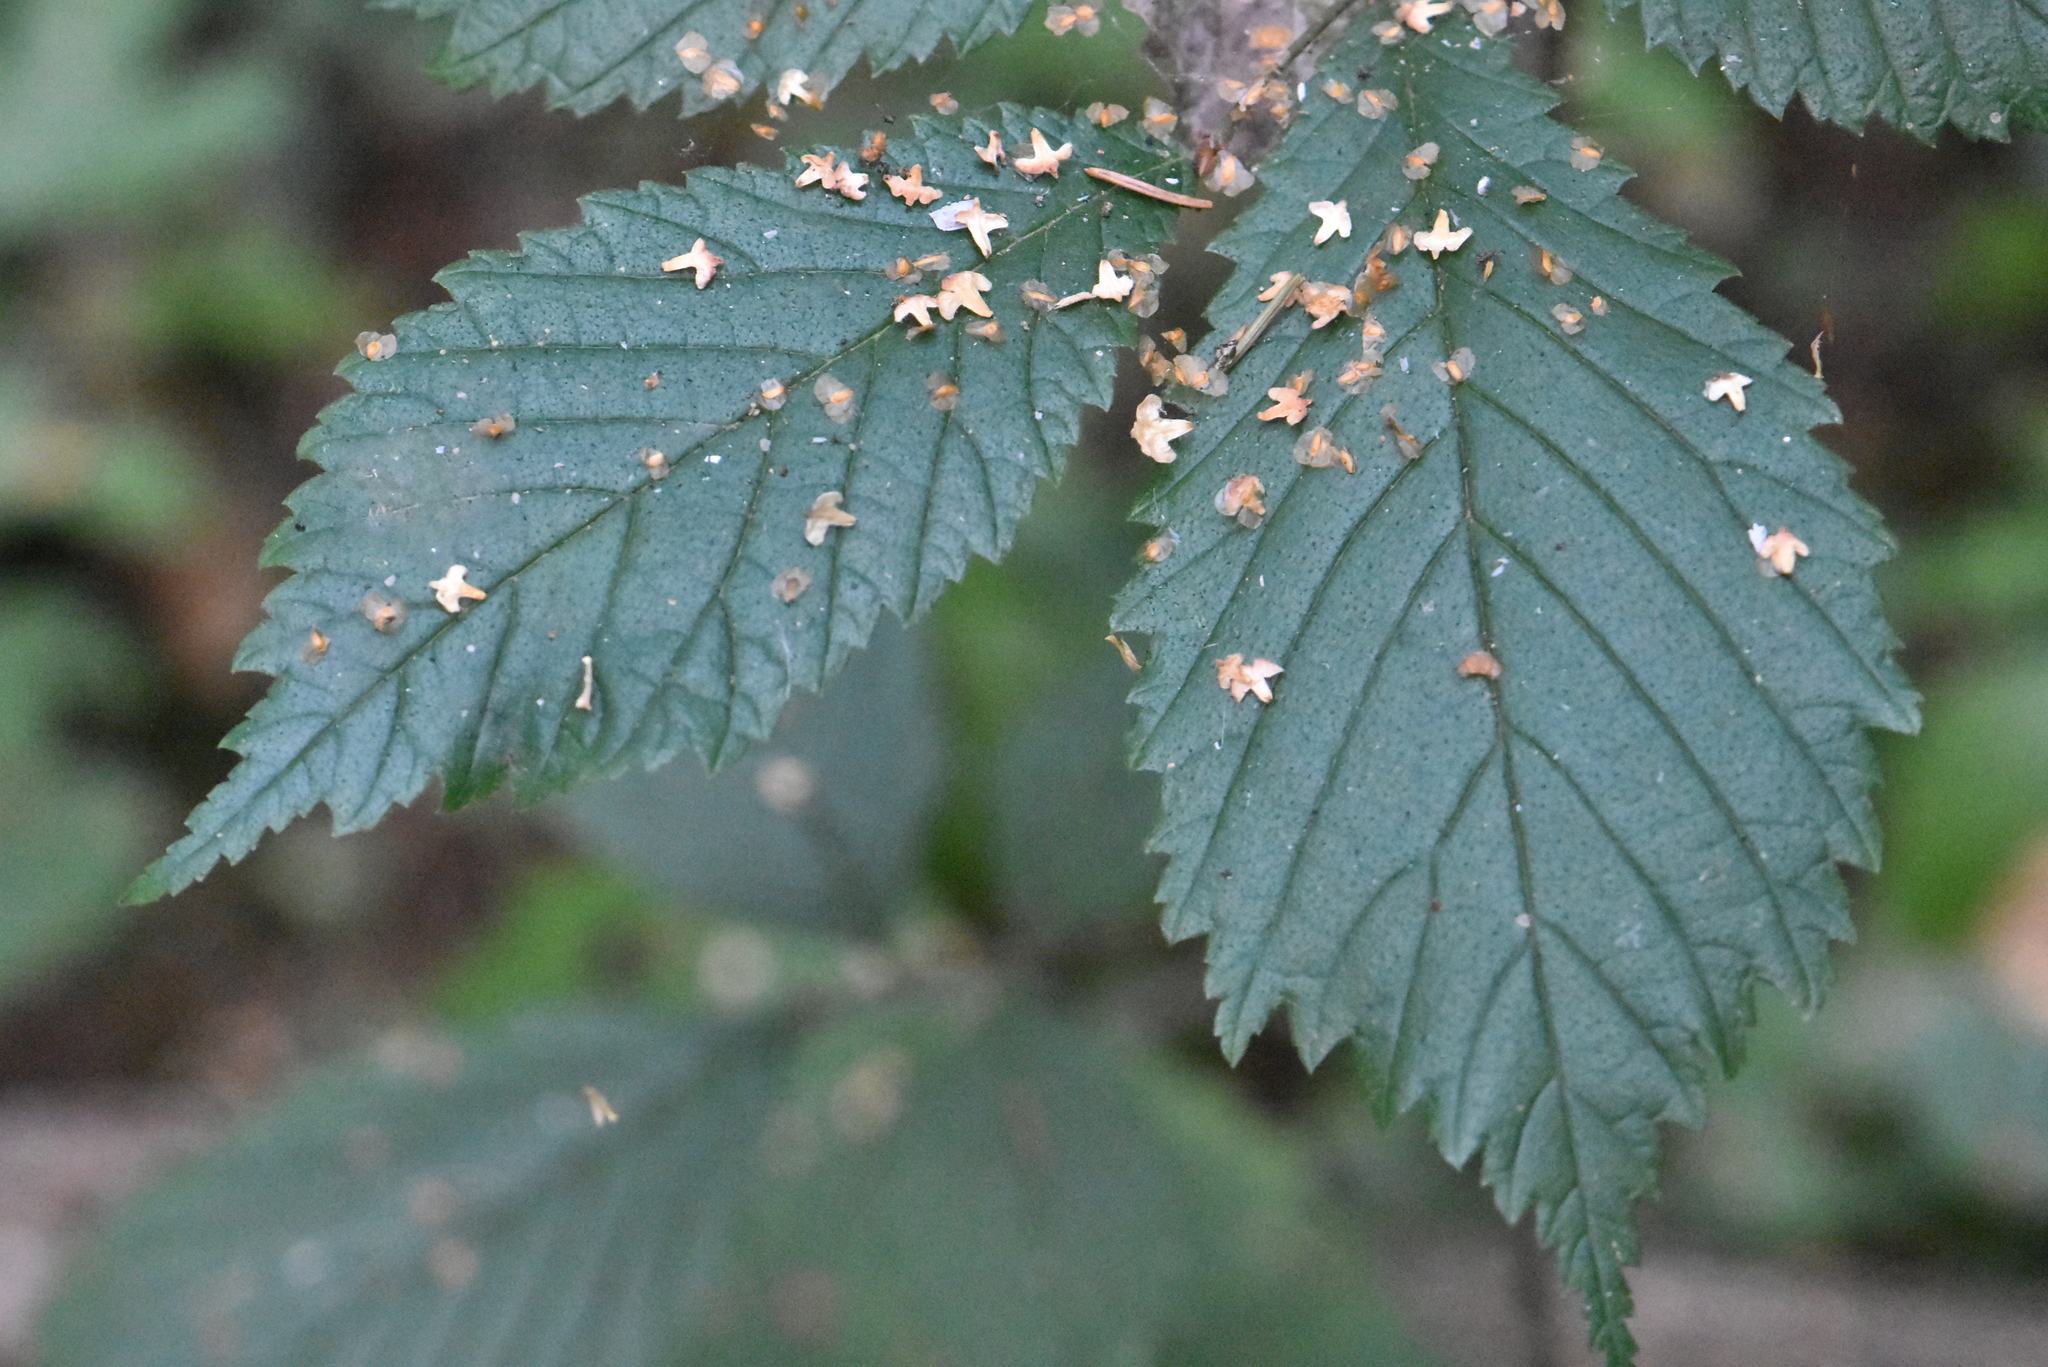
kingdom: Plantae
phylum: Tracheophyta
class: Magnoliopsida
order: Rosales
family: Ulmaceae
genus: Ulmus
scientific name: Ulmus glabra
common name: Wych elm
